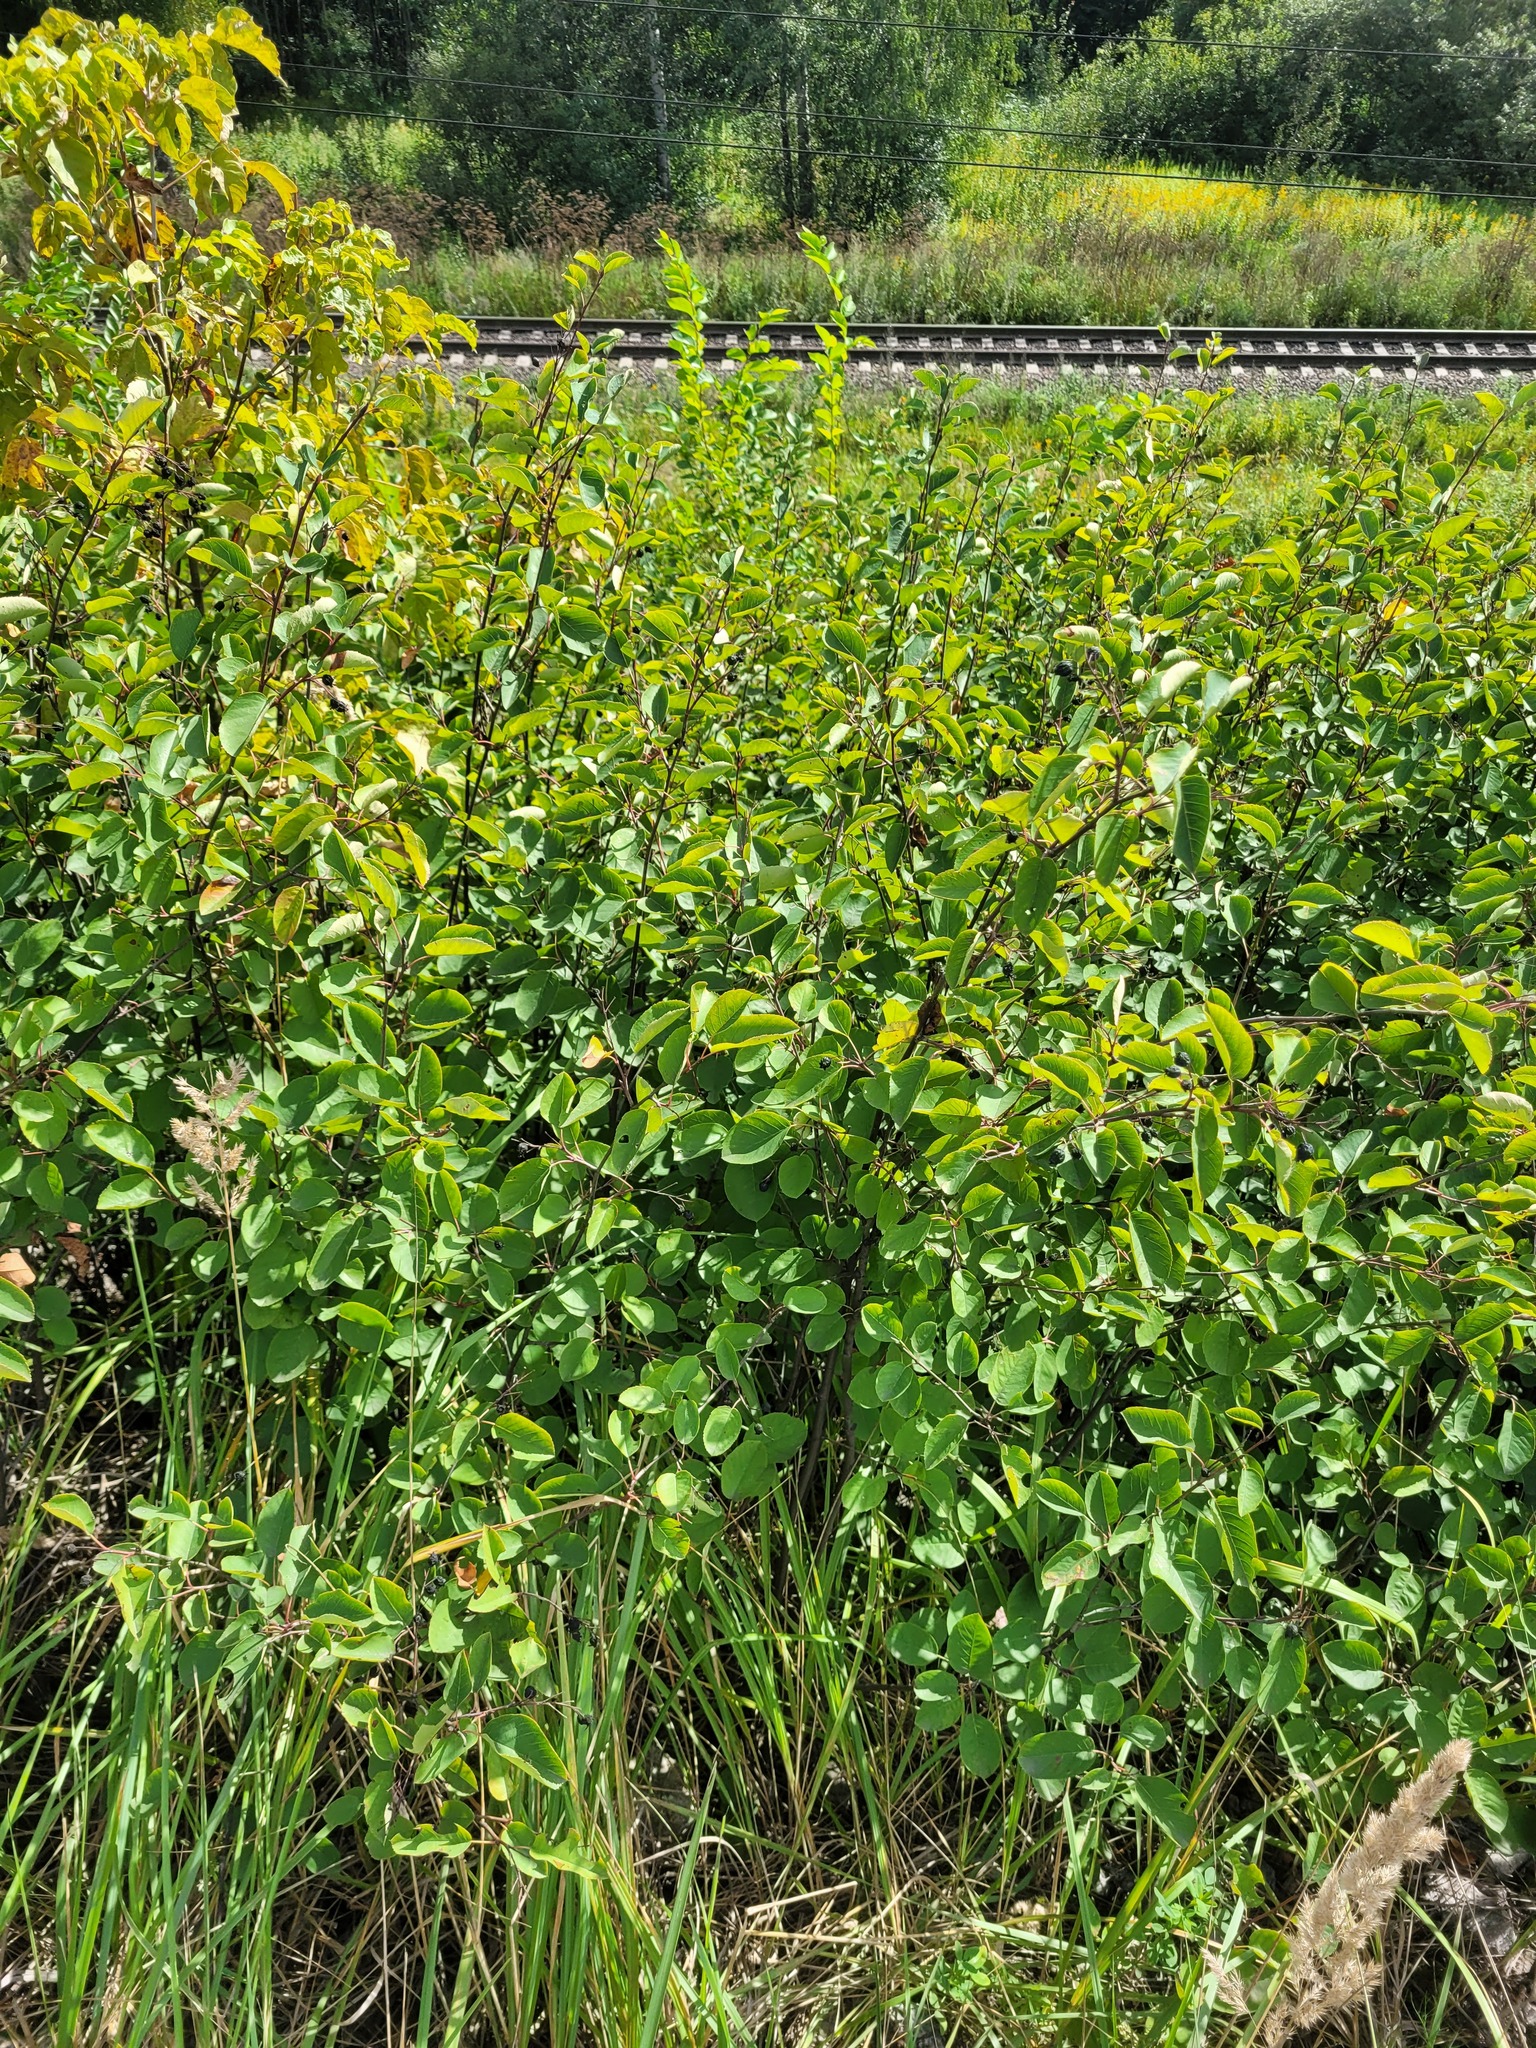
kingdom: Plantae
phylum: Tracheophyta
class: Magnoliopsida
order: Rosales
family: Rosaceae
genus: Amelanchier
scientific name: Amelanchier
